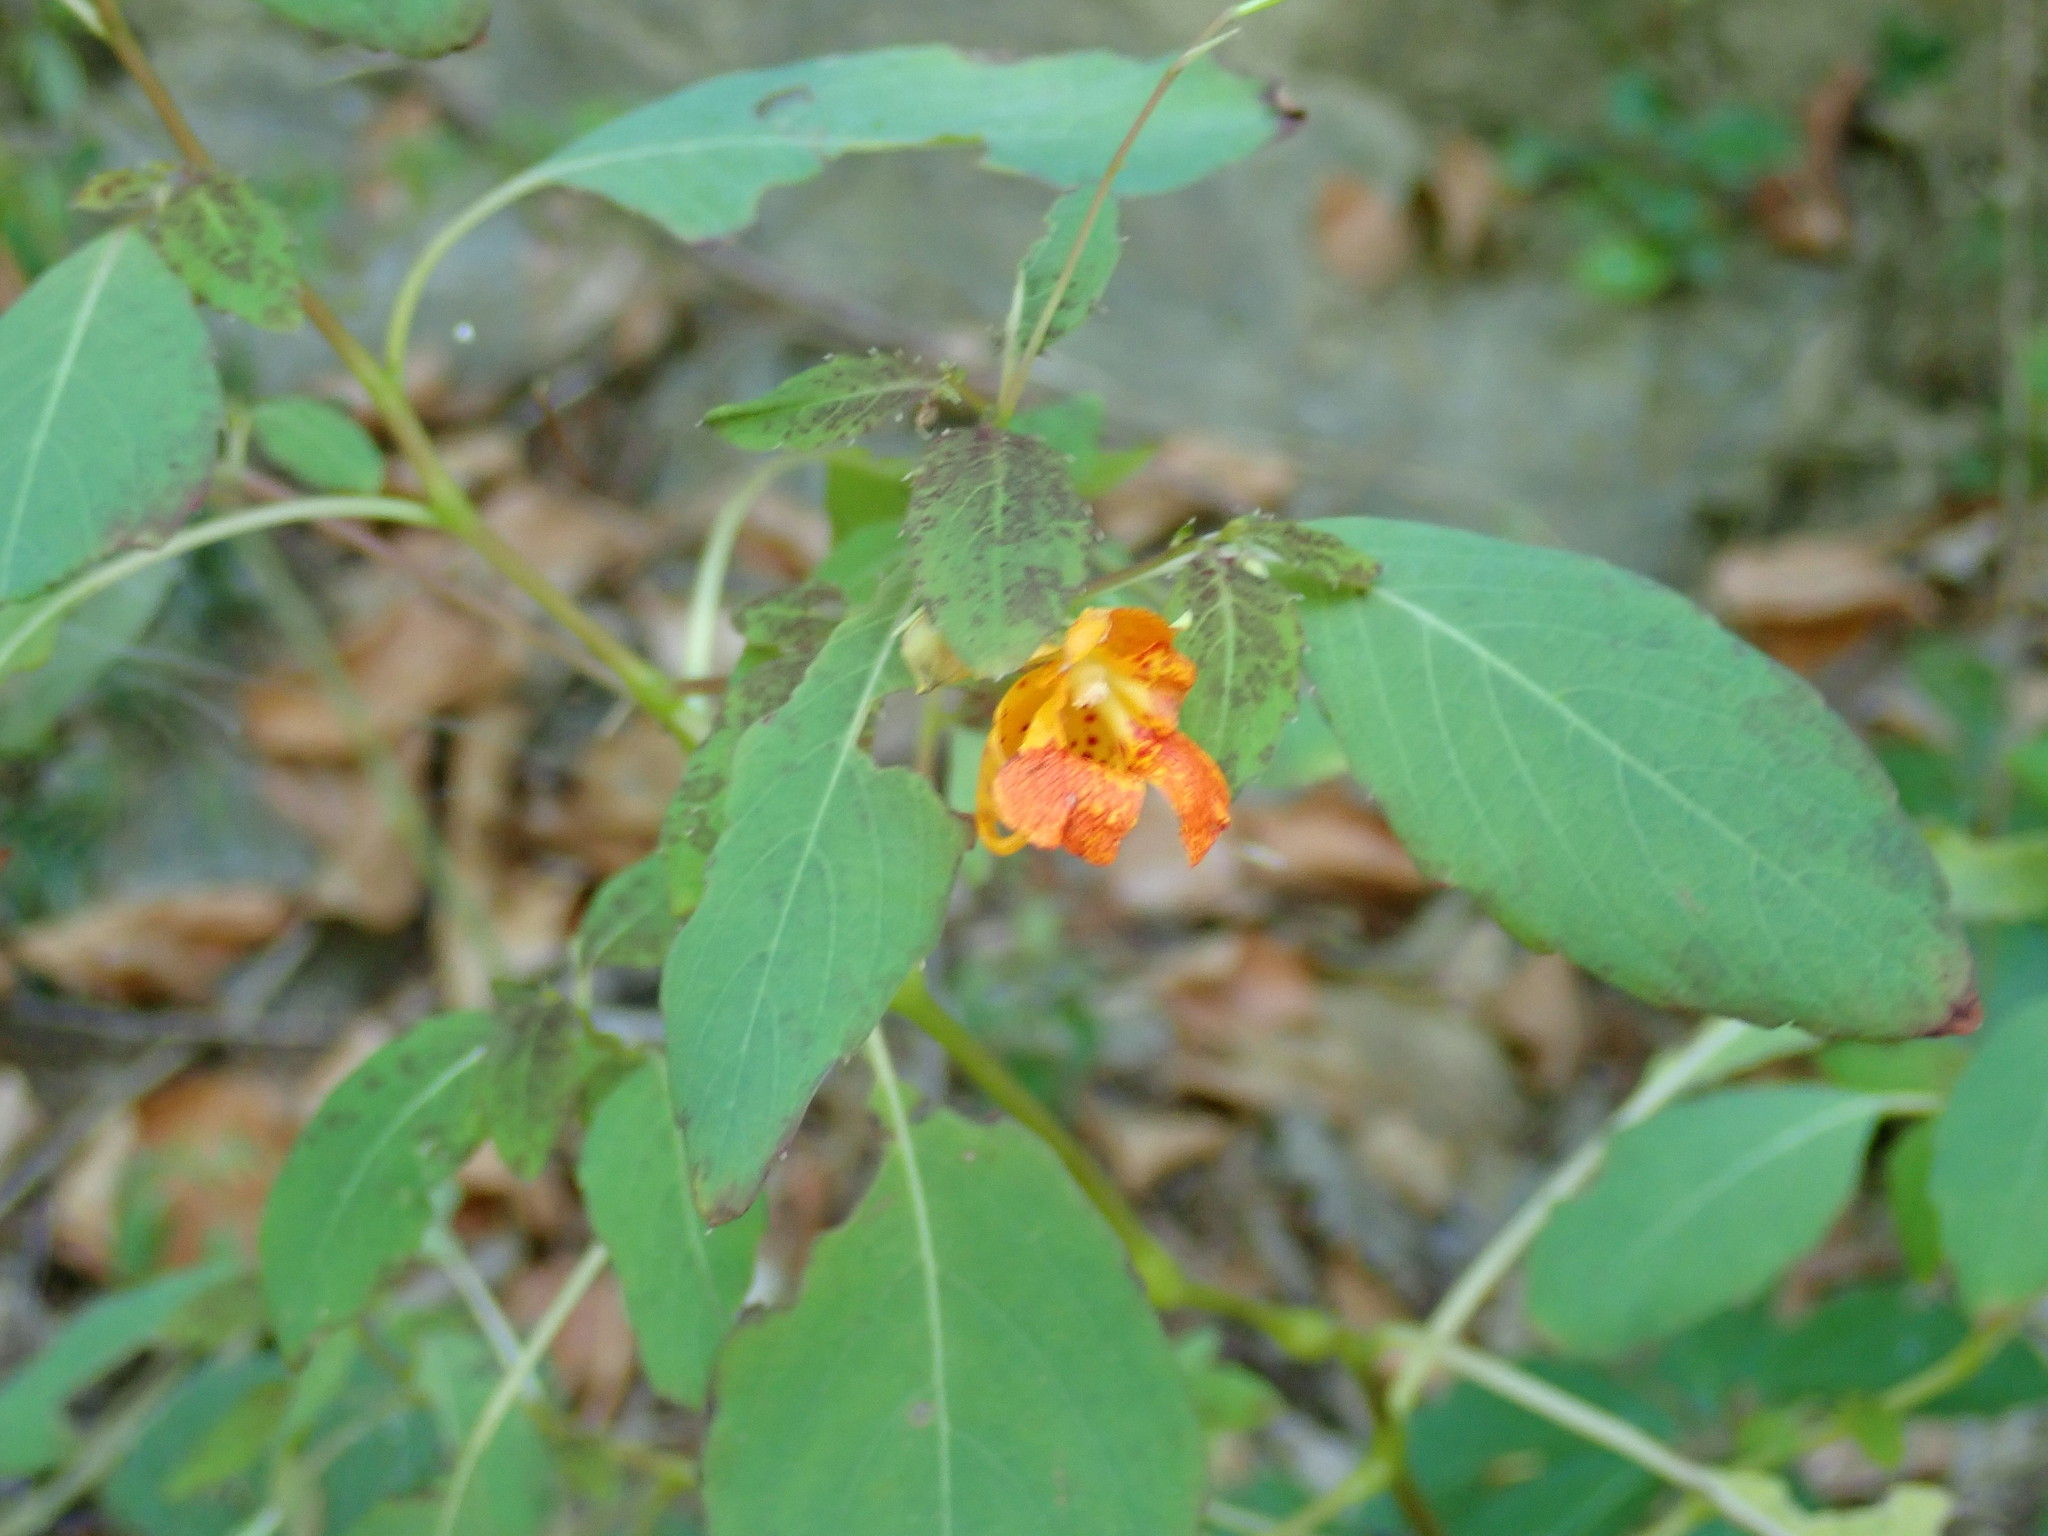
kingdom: Plantae
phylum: Tracheophyta
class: Magnoliopsida
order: Ericales
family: Balsaminaceae
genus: Impatiens
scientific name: Impatiens capensis
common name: Orange balsam
